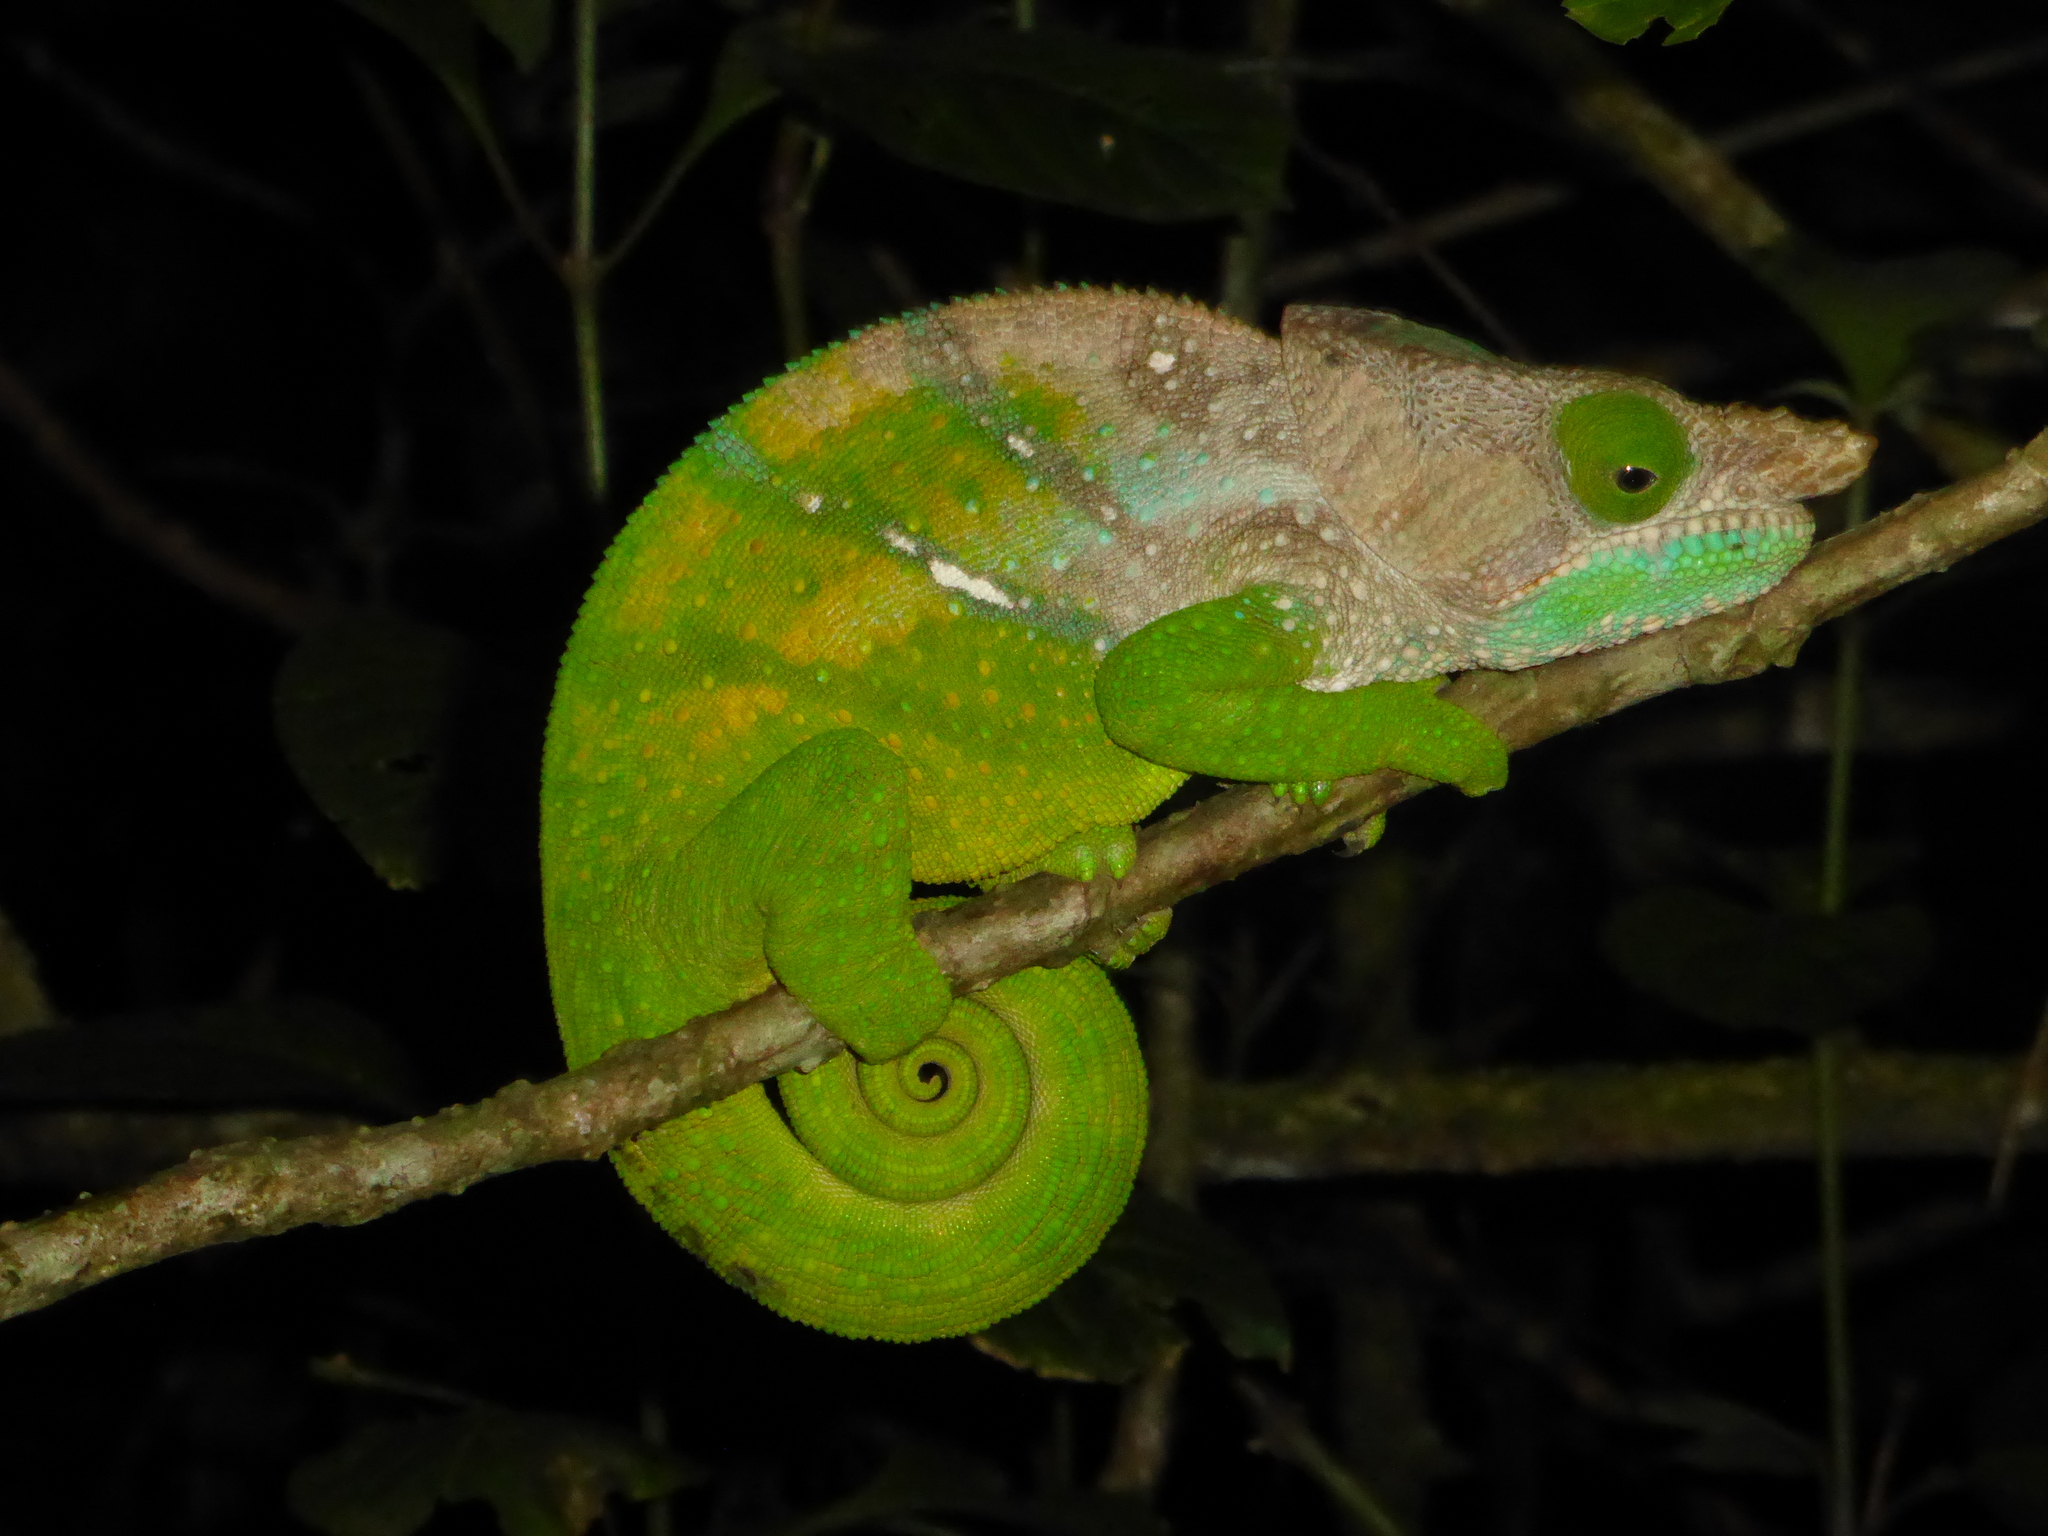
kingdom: Animalia
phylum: Chordata
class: Squamata
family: Chamaeleonidae
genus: Calumma
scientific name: Calumma oshaughnessyi
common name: O'shaughnessy's chameleon
